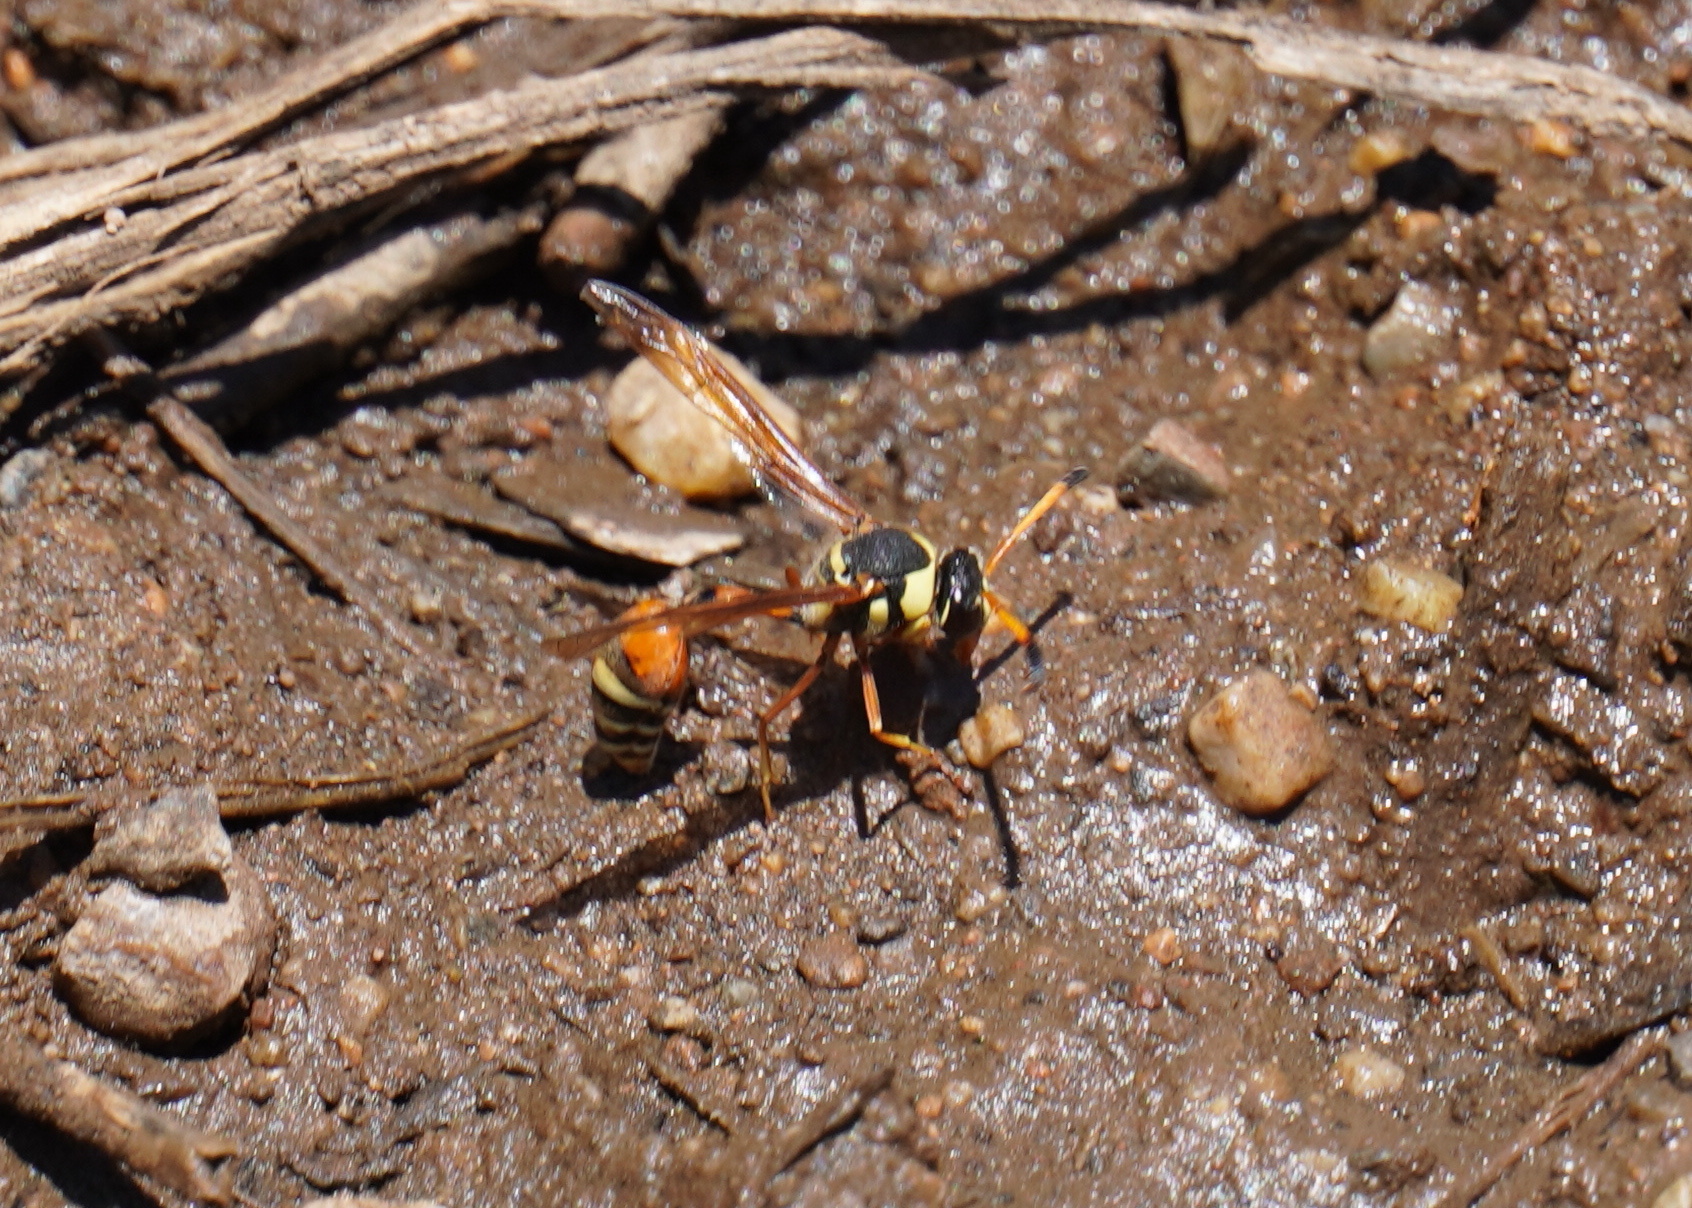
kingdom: Animalia
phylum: Arthropoda
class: Insecta
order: Hymenoptera
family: Eumenidae
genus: Delta
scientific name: Delta pulcherrimum
